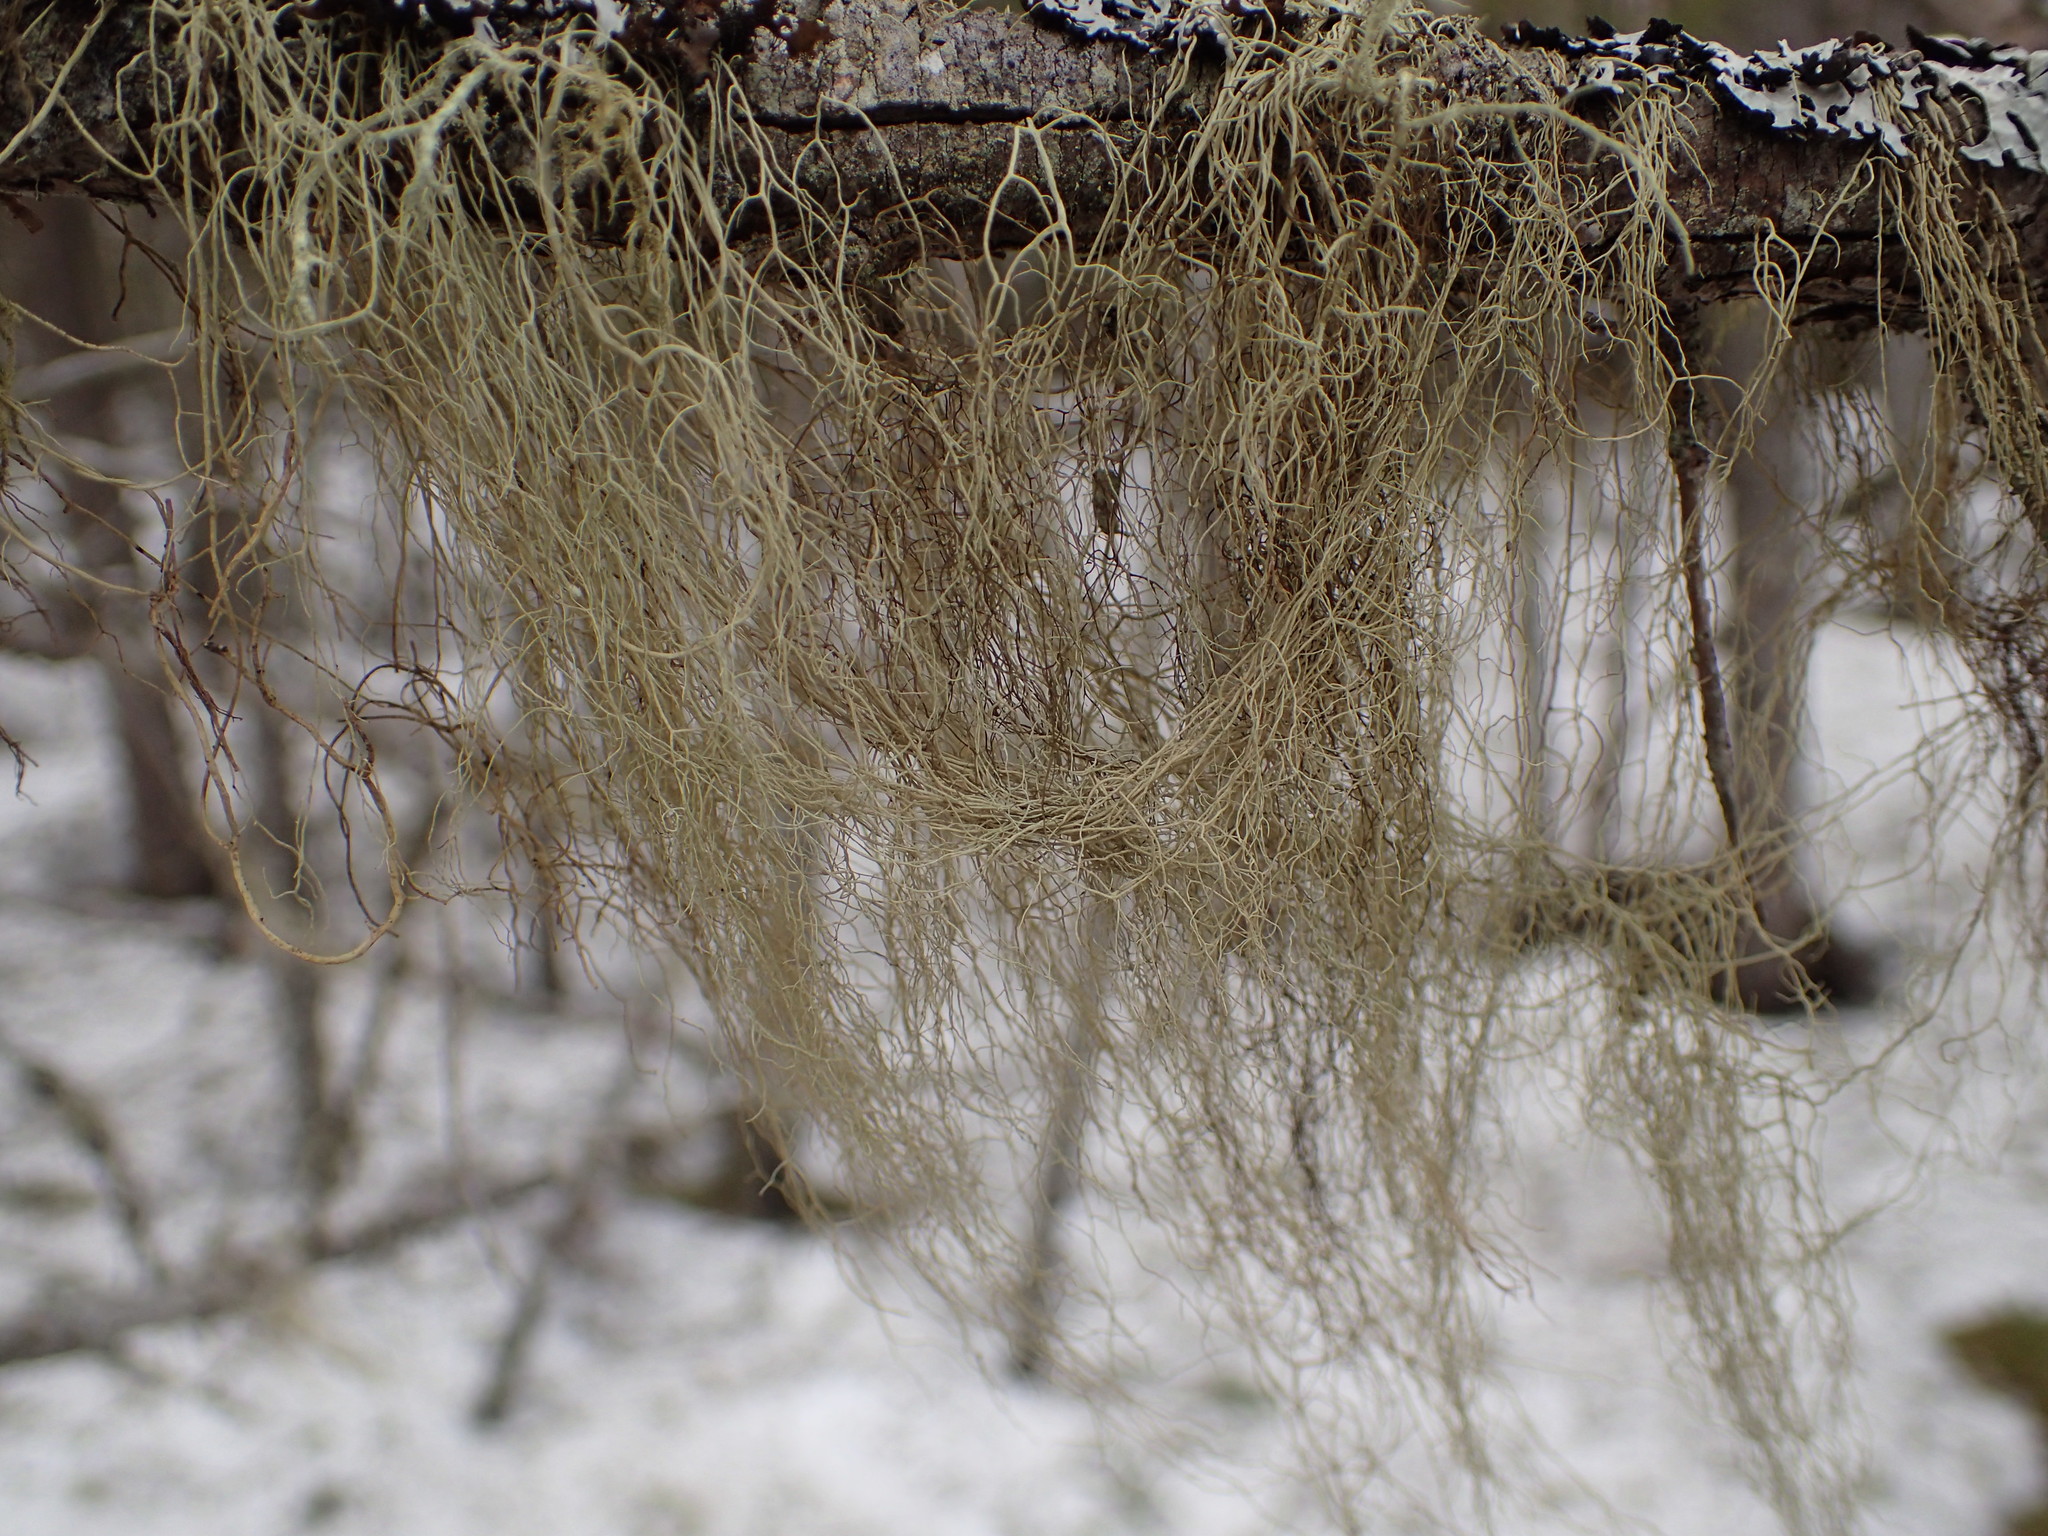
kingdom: Fungi
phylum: Ascomycota
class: Lecanoromycetes
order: Lecanorales
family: Parmeliaceae
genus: Usnea
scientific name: Usnea cavernosa
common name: Pitted beard lichen
